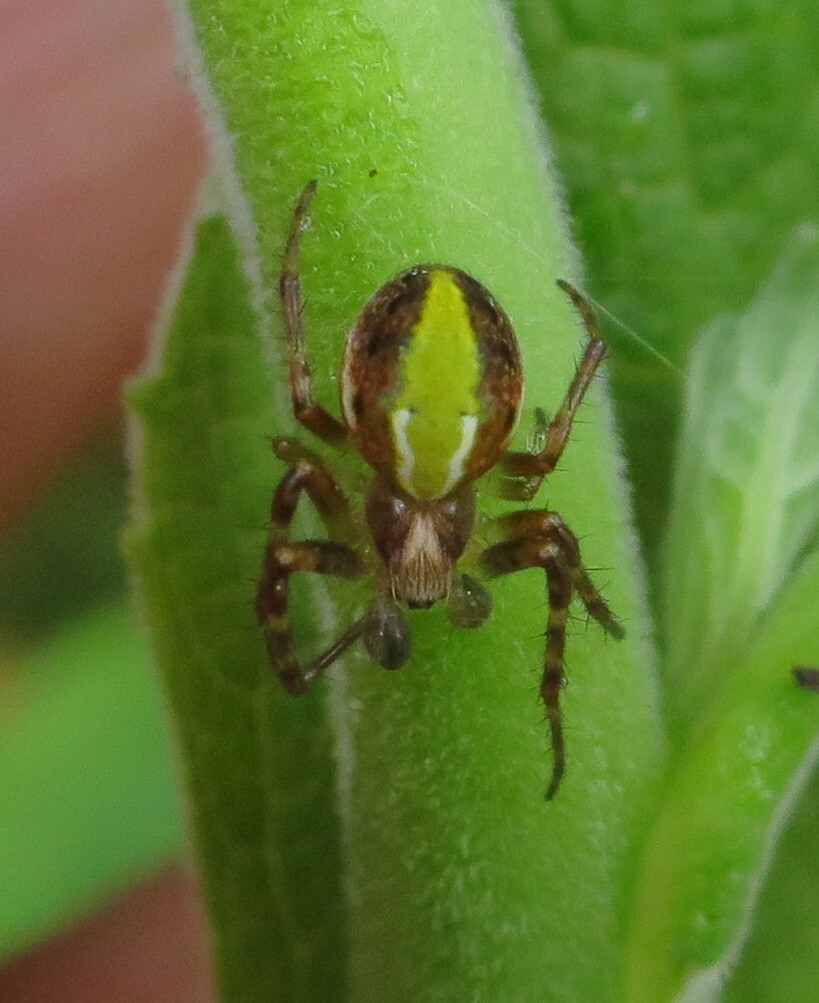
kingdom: Animalia
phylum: Arthropoda
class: Arachnida
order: Araneae
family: Araneidae
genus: Novaranea
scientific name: Novaranea queribunda
